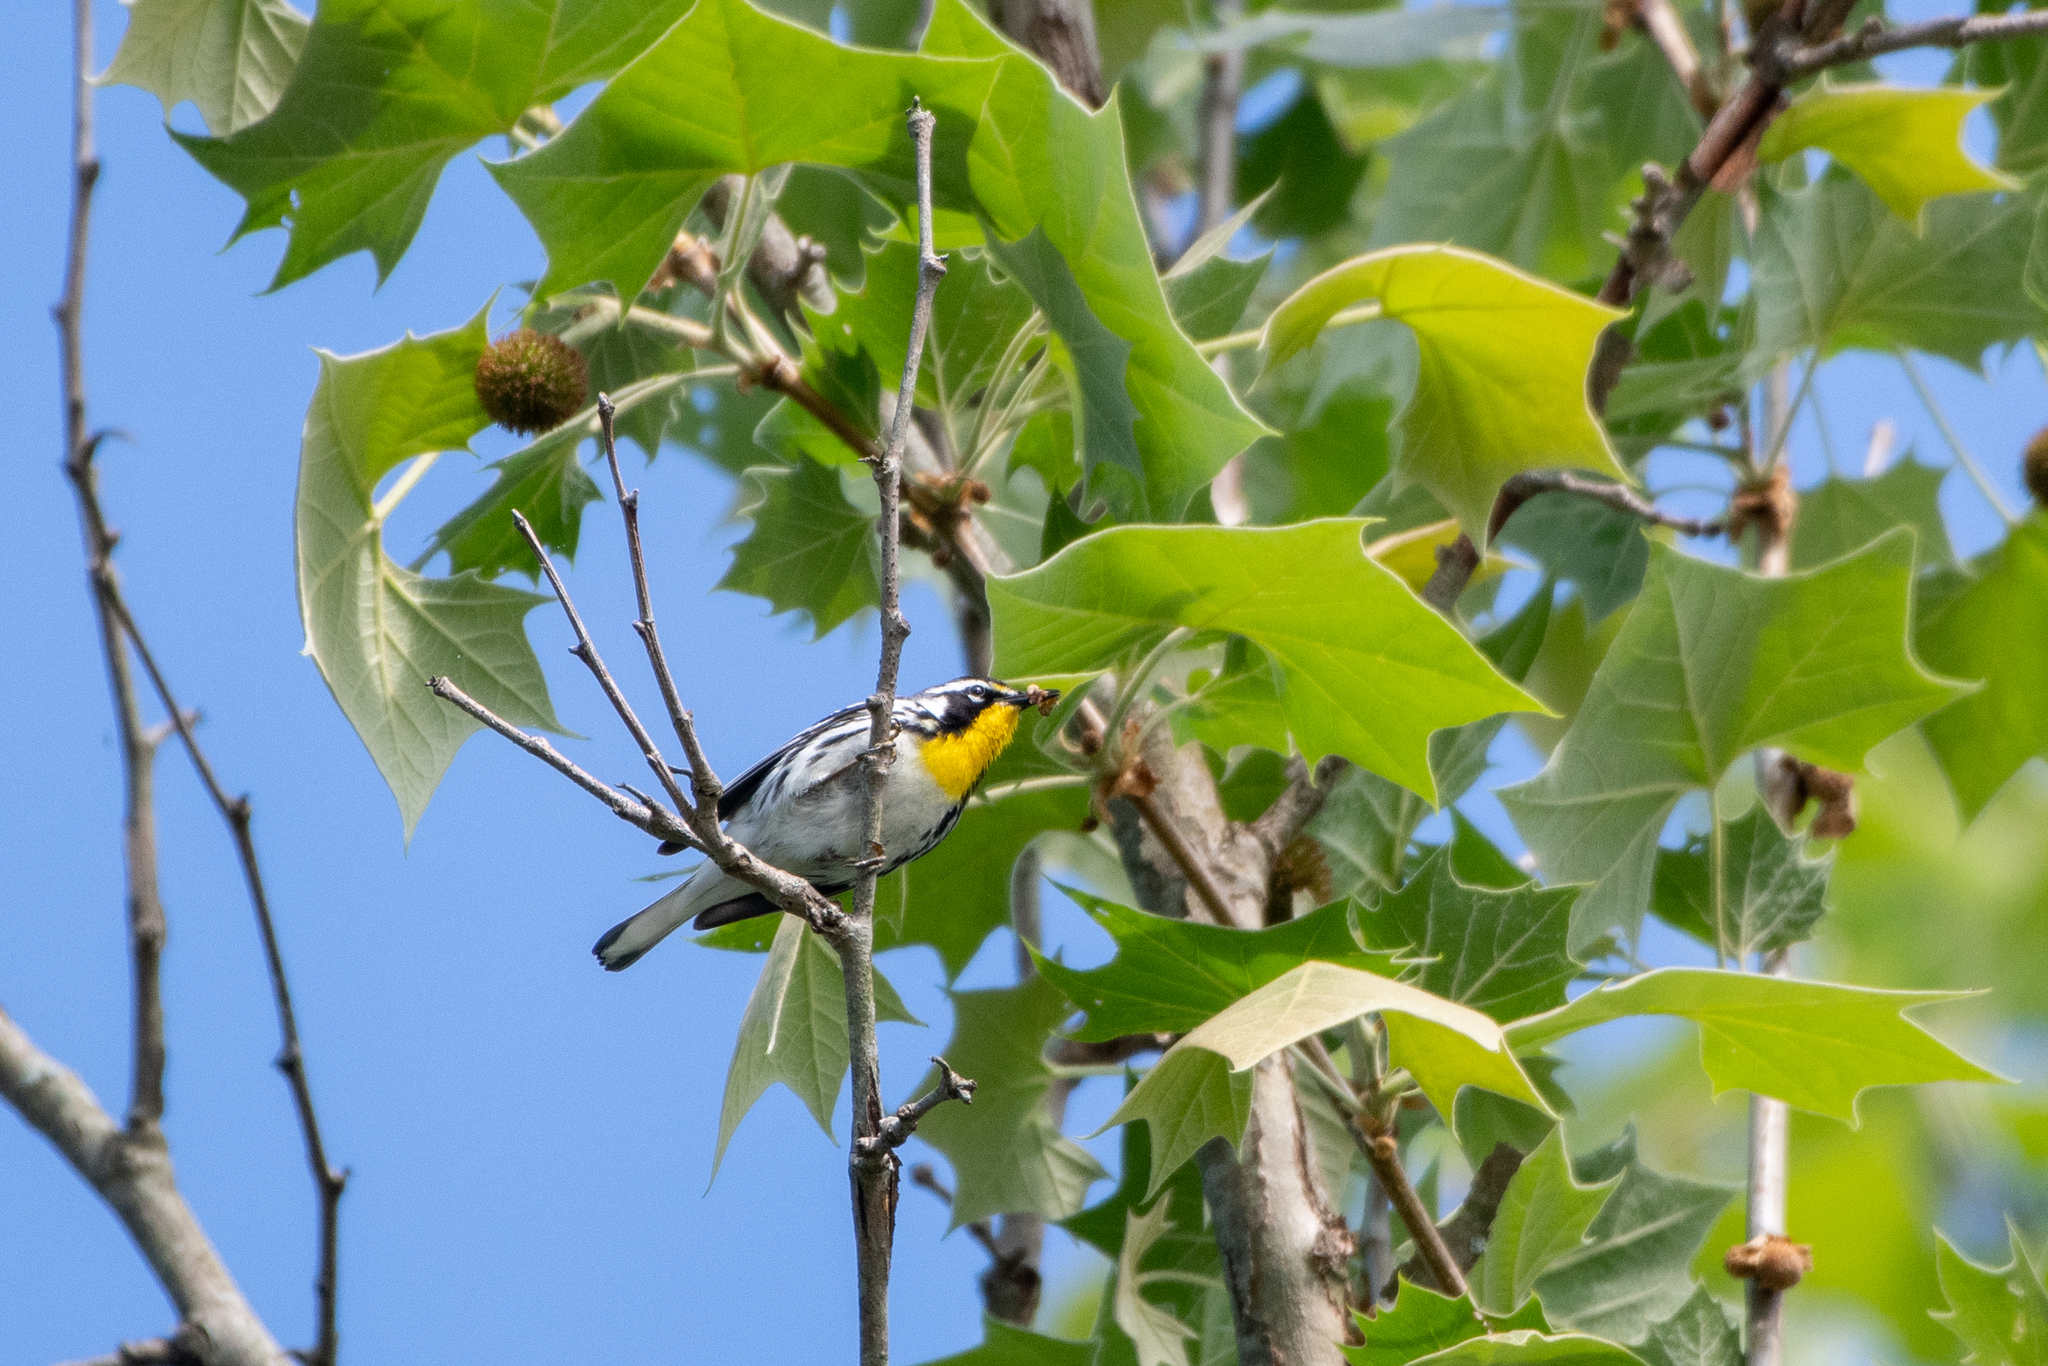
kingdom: Animalia
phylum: Chordata
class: Aves
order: Passeriformes
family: Parulidae
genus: Setophaga
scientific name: Setophaga dominica
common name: Yellow-throated warbler
